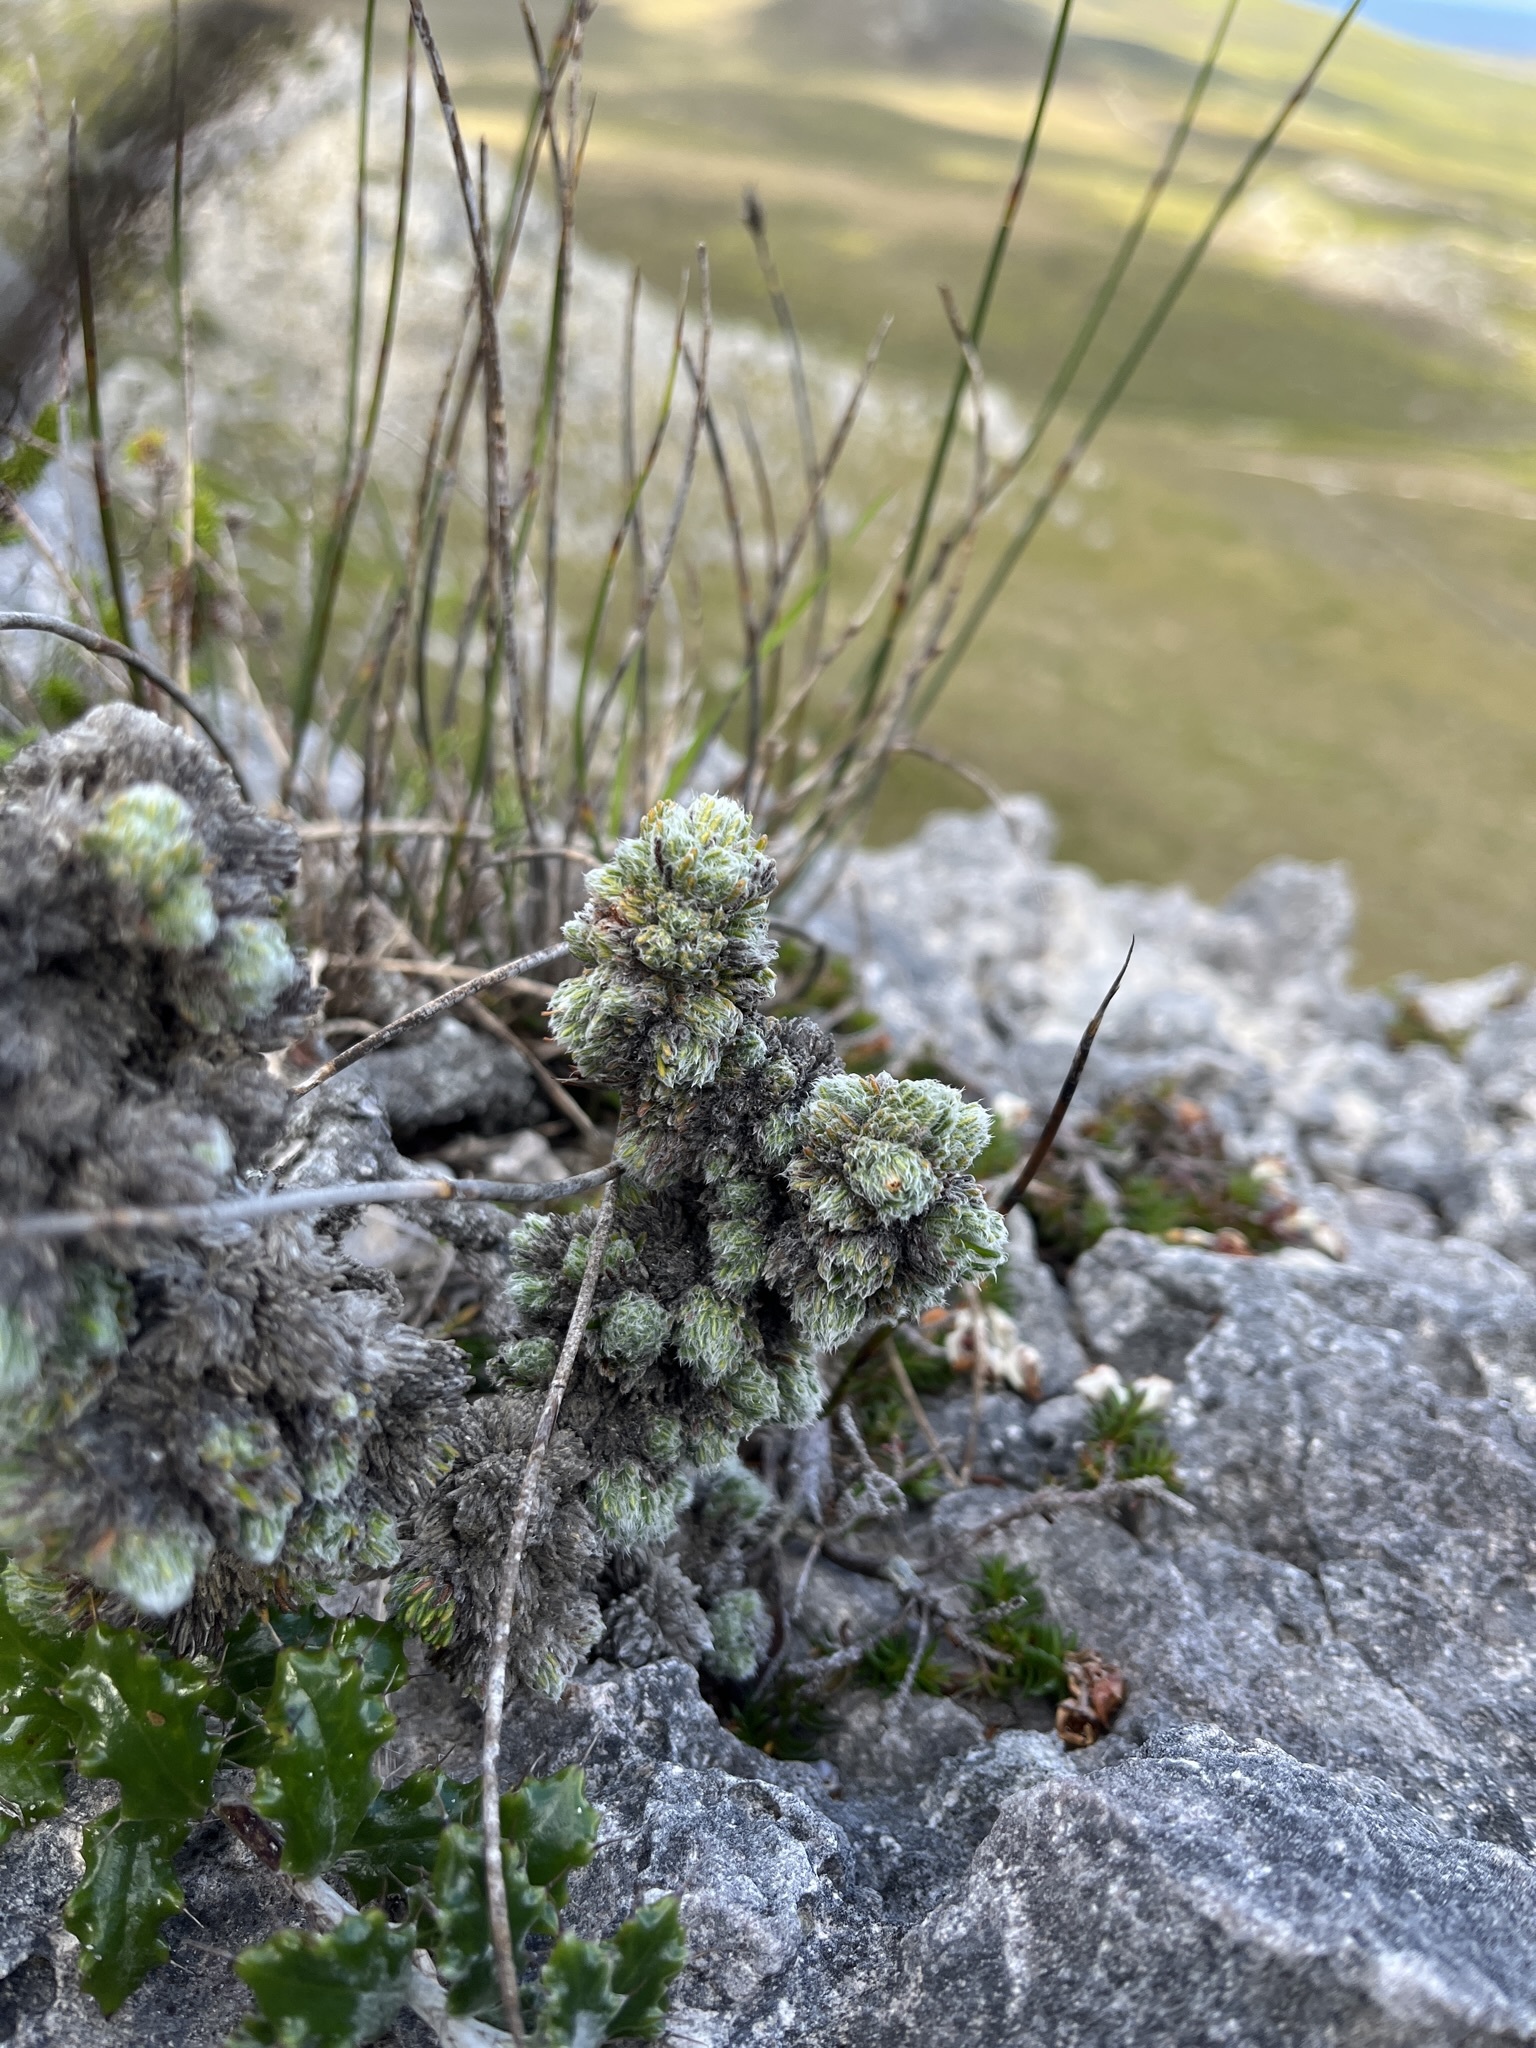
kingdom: Plantae
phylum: Tracheophyta
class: Magnoliopsida
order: Ericales
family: Ericaceae
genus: Erica
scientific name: Erica occulta
